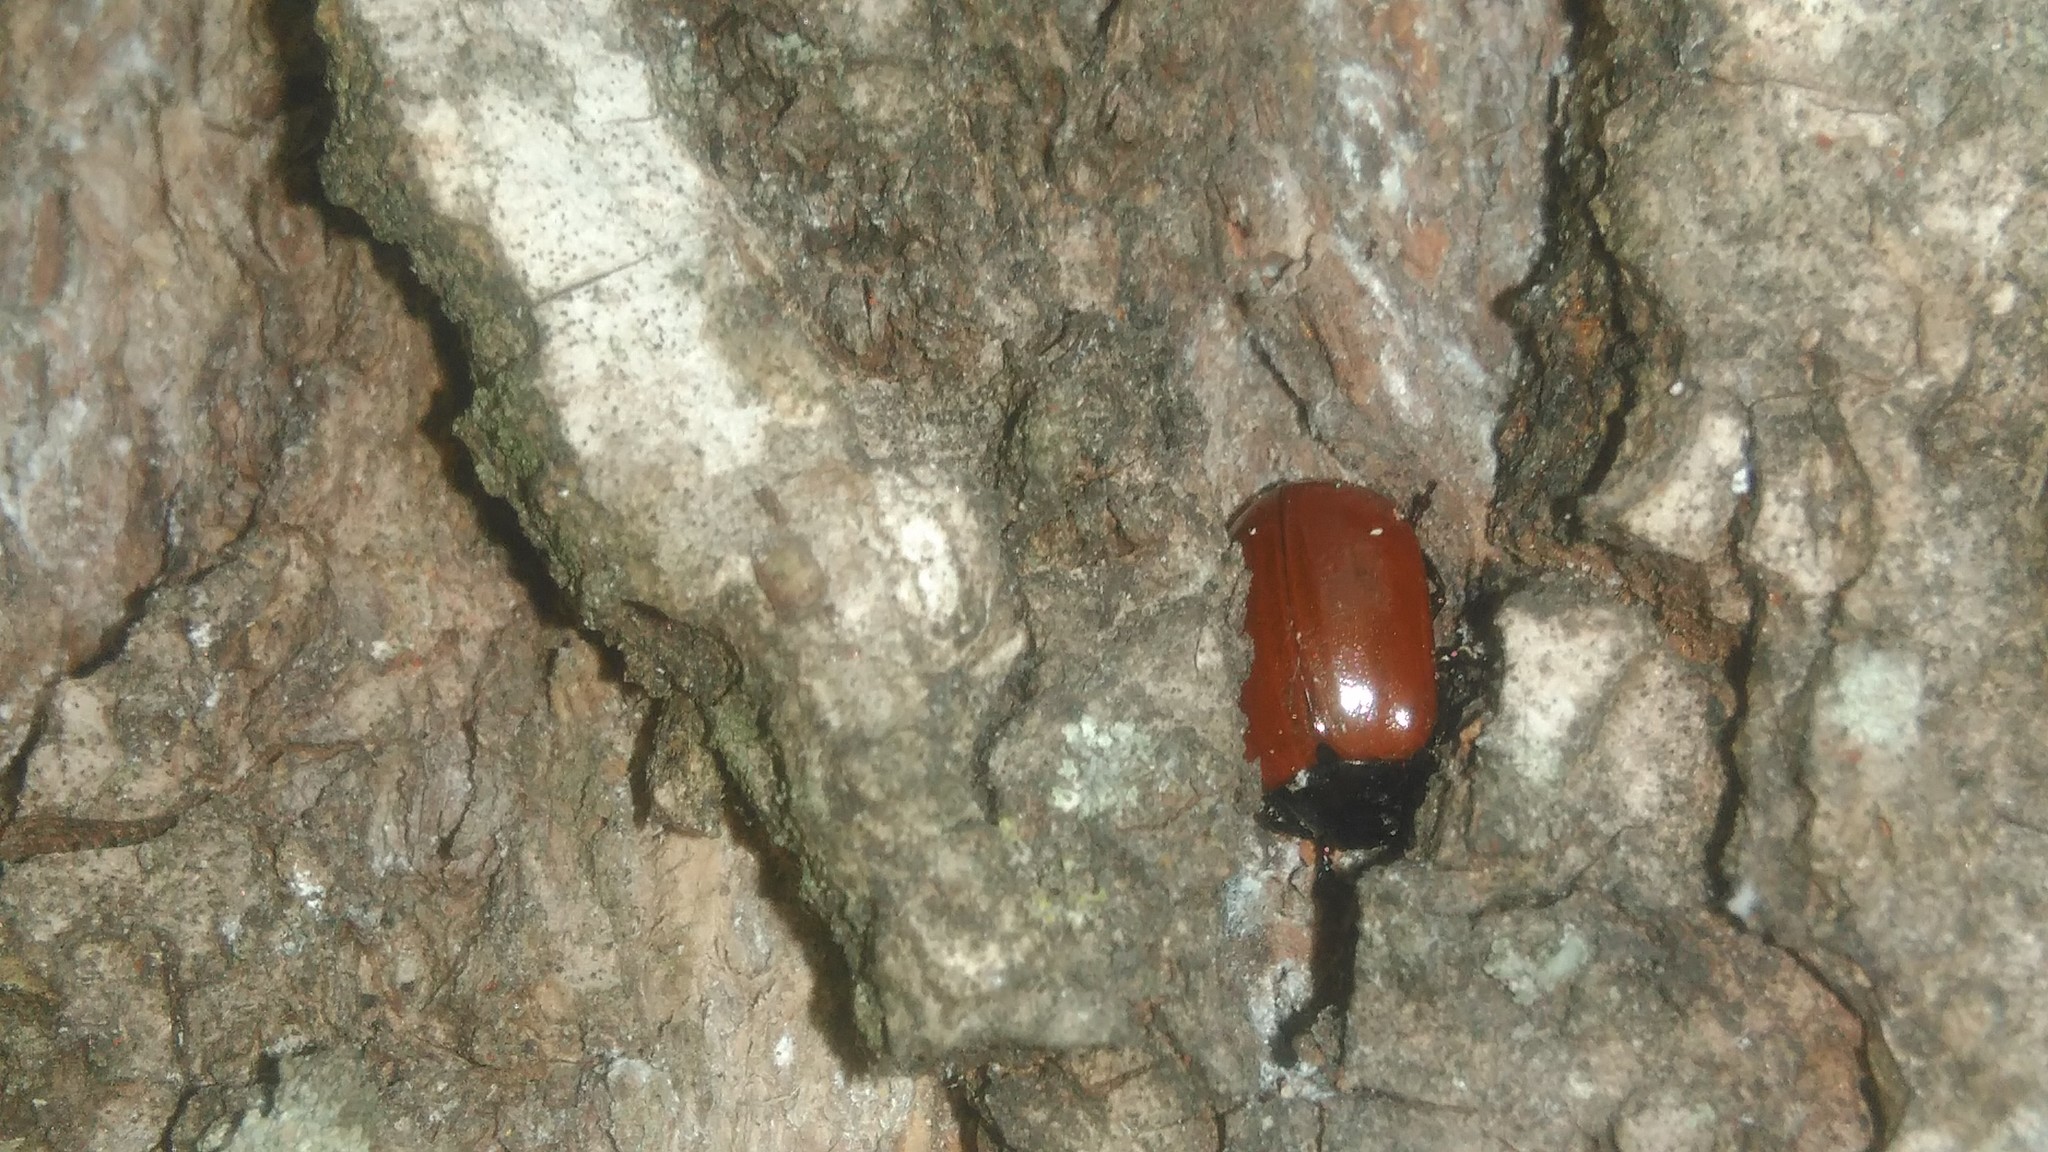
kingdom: Animalia
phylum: Arthropoda
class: Insecta
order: Coleoptera
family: Chrysomelidae
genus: Plagiodera
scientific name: Plagiodera
